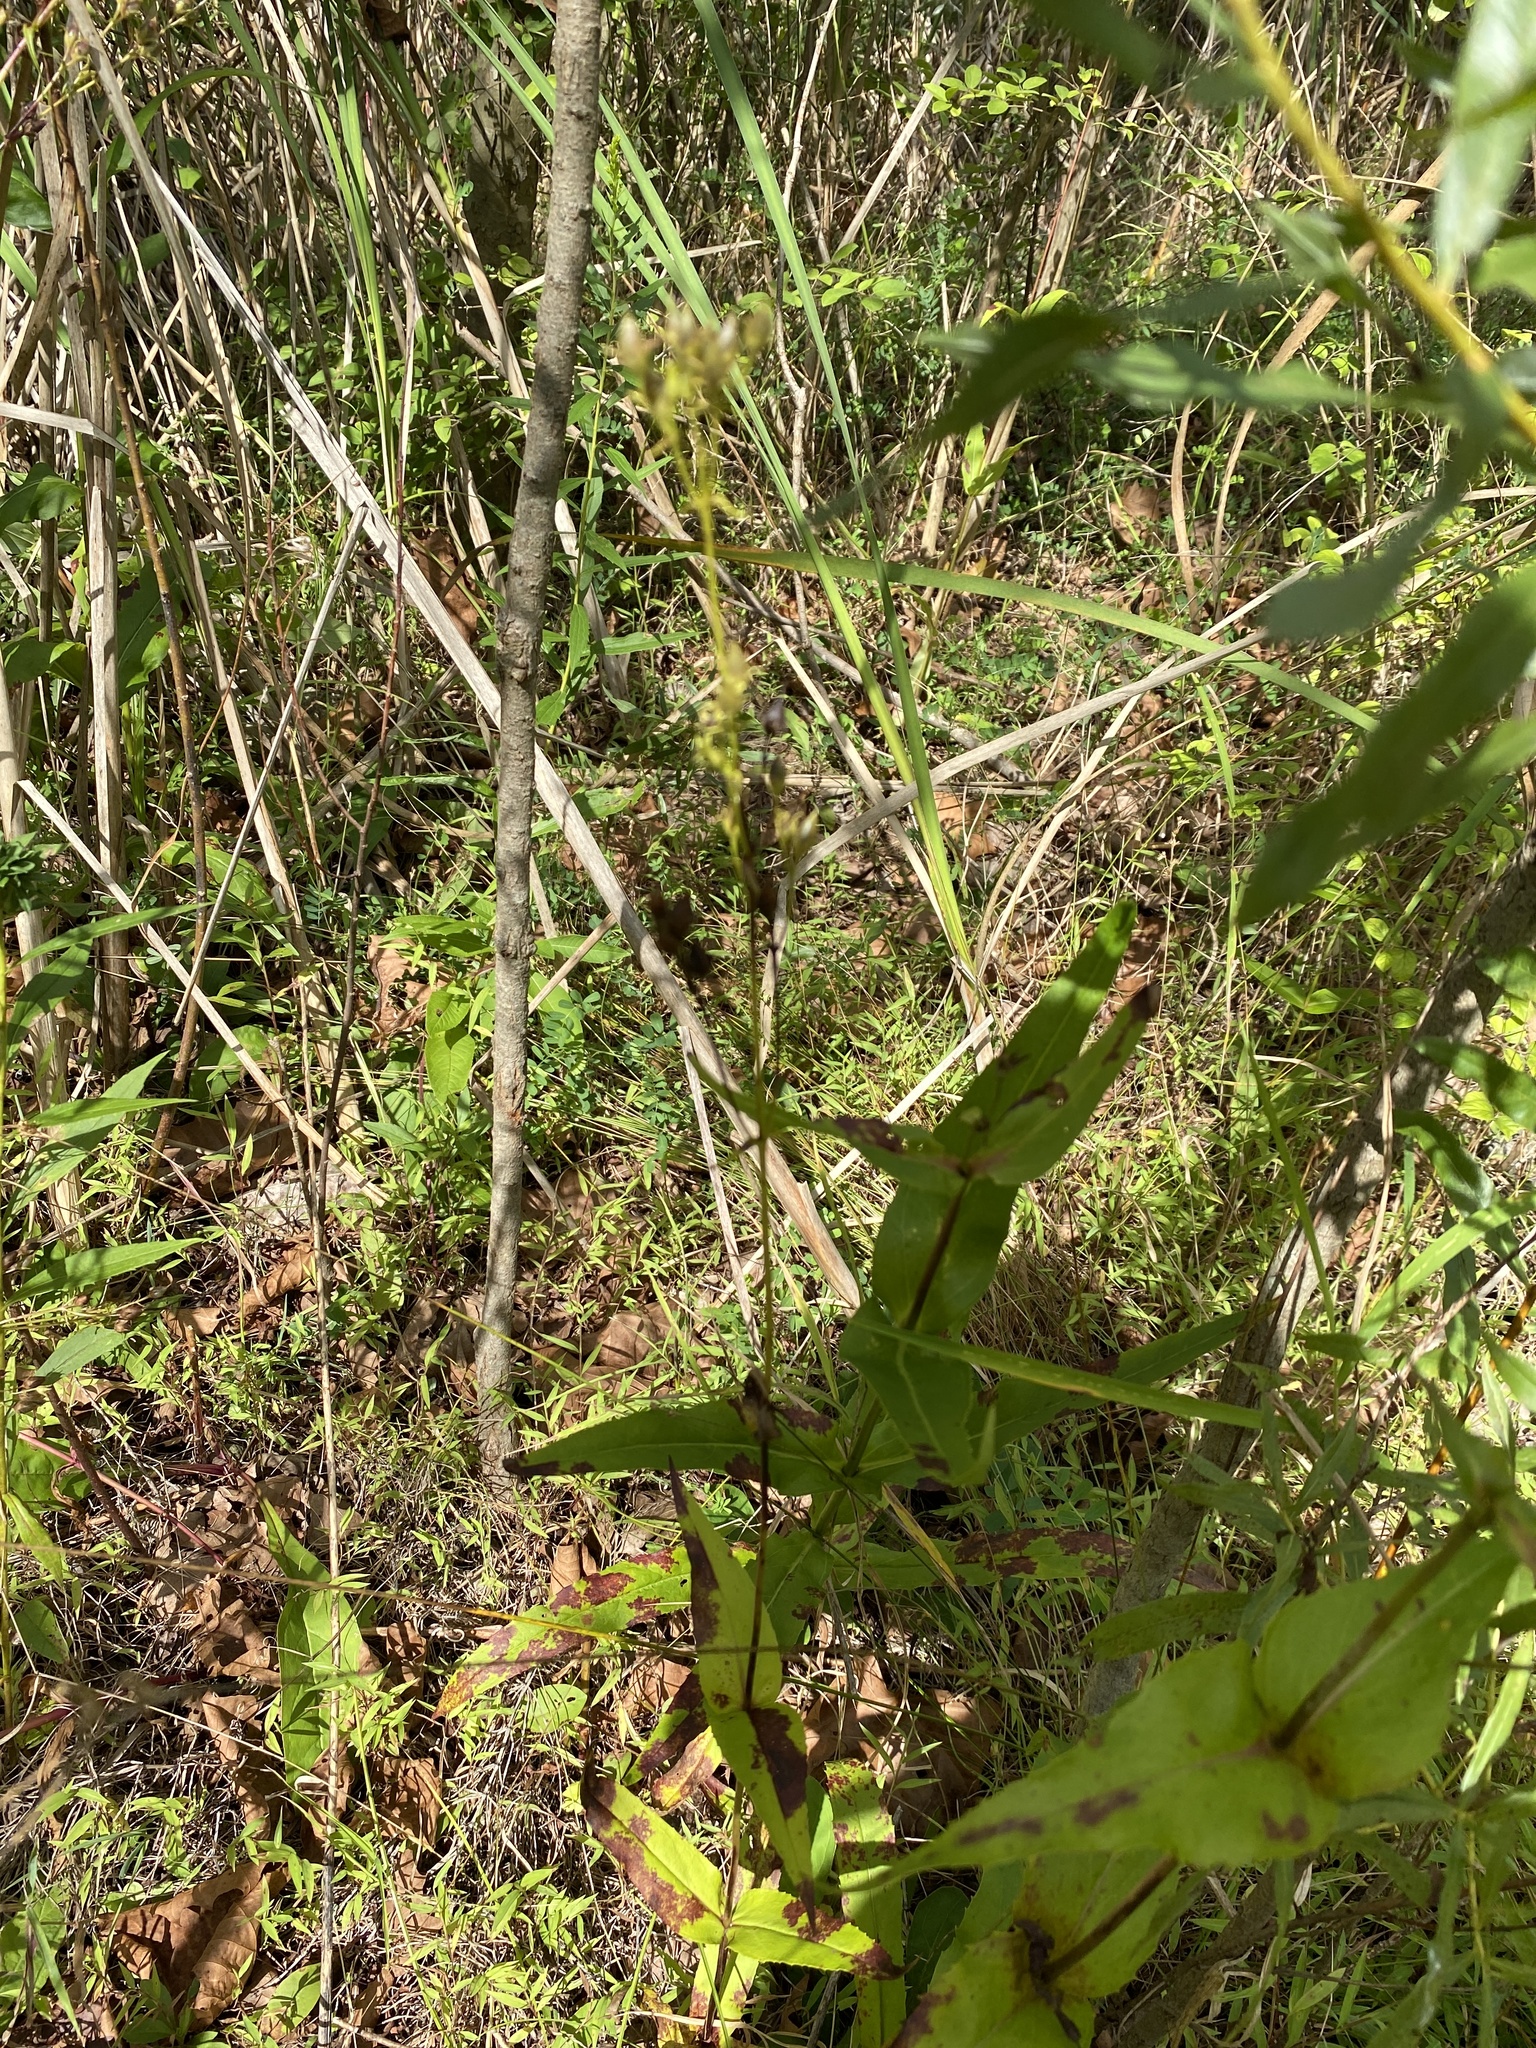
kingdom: Plantae
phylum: Tracheophyta
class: Magnoliopsida
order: Lamiales
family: Plantaginaceae
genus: Penstemon
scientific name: Penstemon digitalis
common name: Foxglove beardtongue
